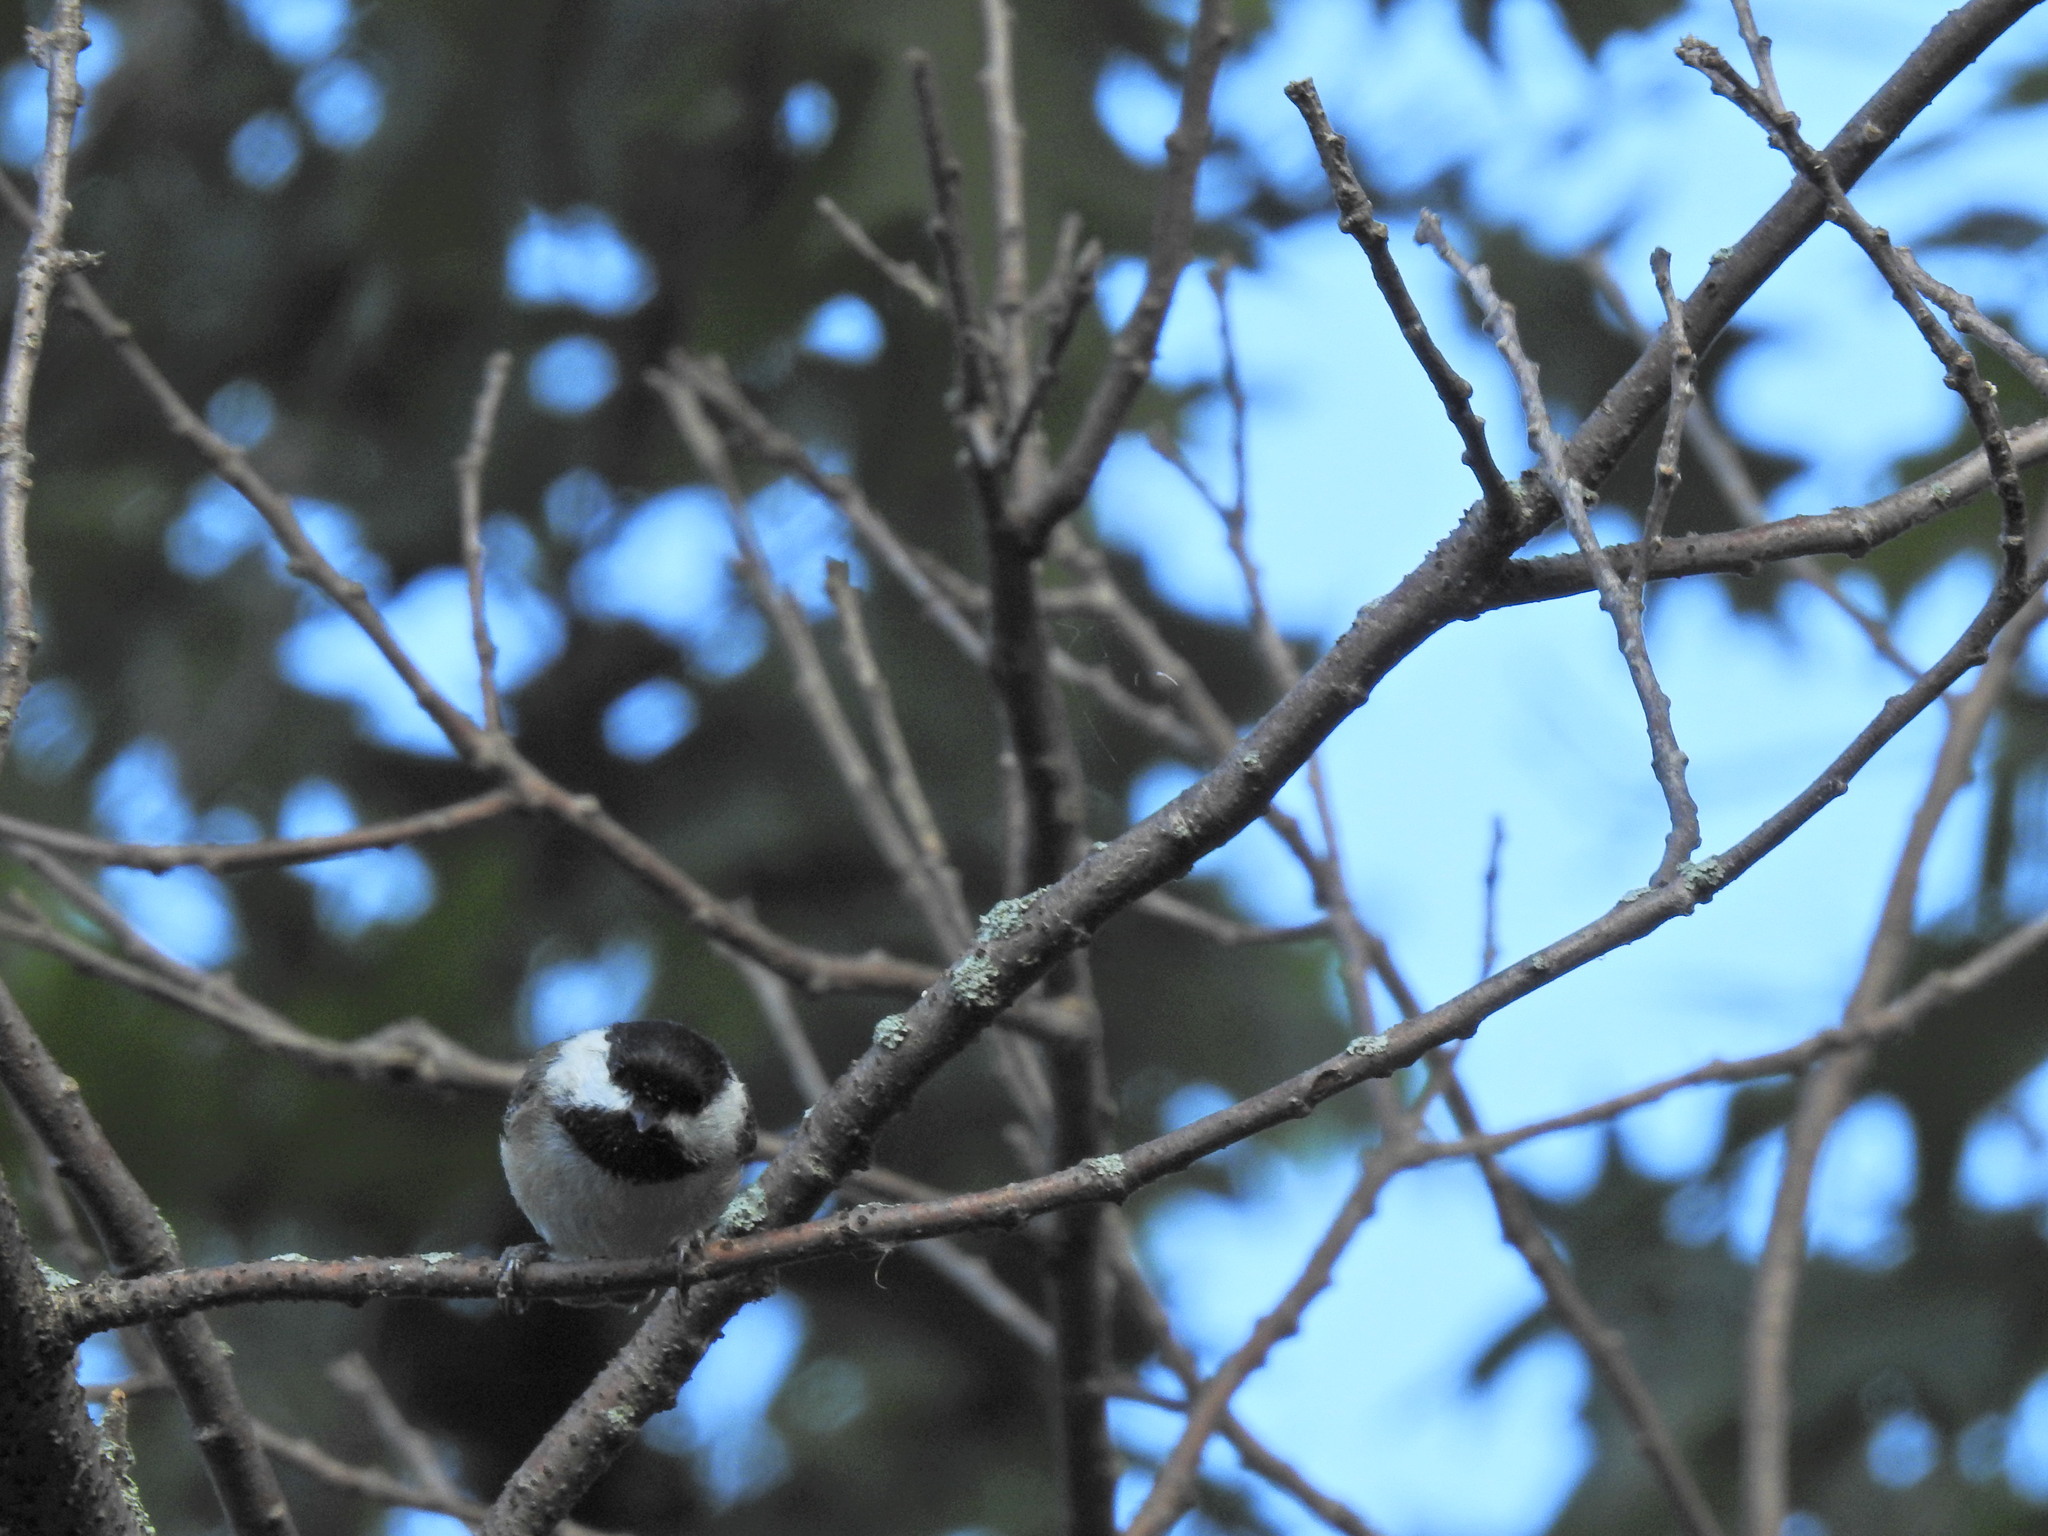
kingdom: Animalia
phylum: Chordata
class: Aves
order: Passeriformes
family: Paridae
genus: Poecile
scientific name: Poecile atricapillus
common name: Black-capped chickadee
